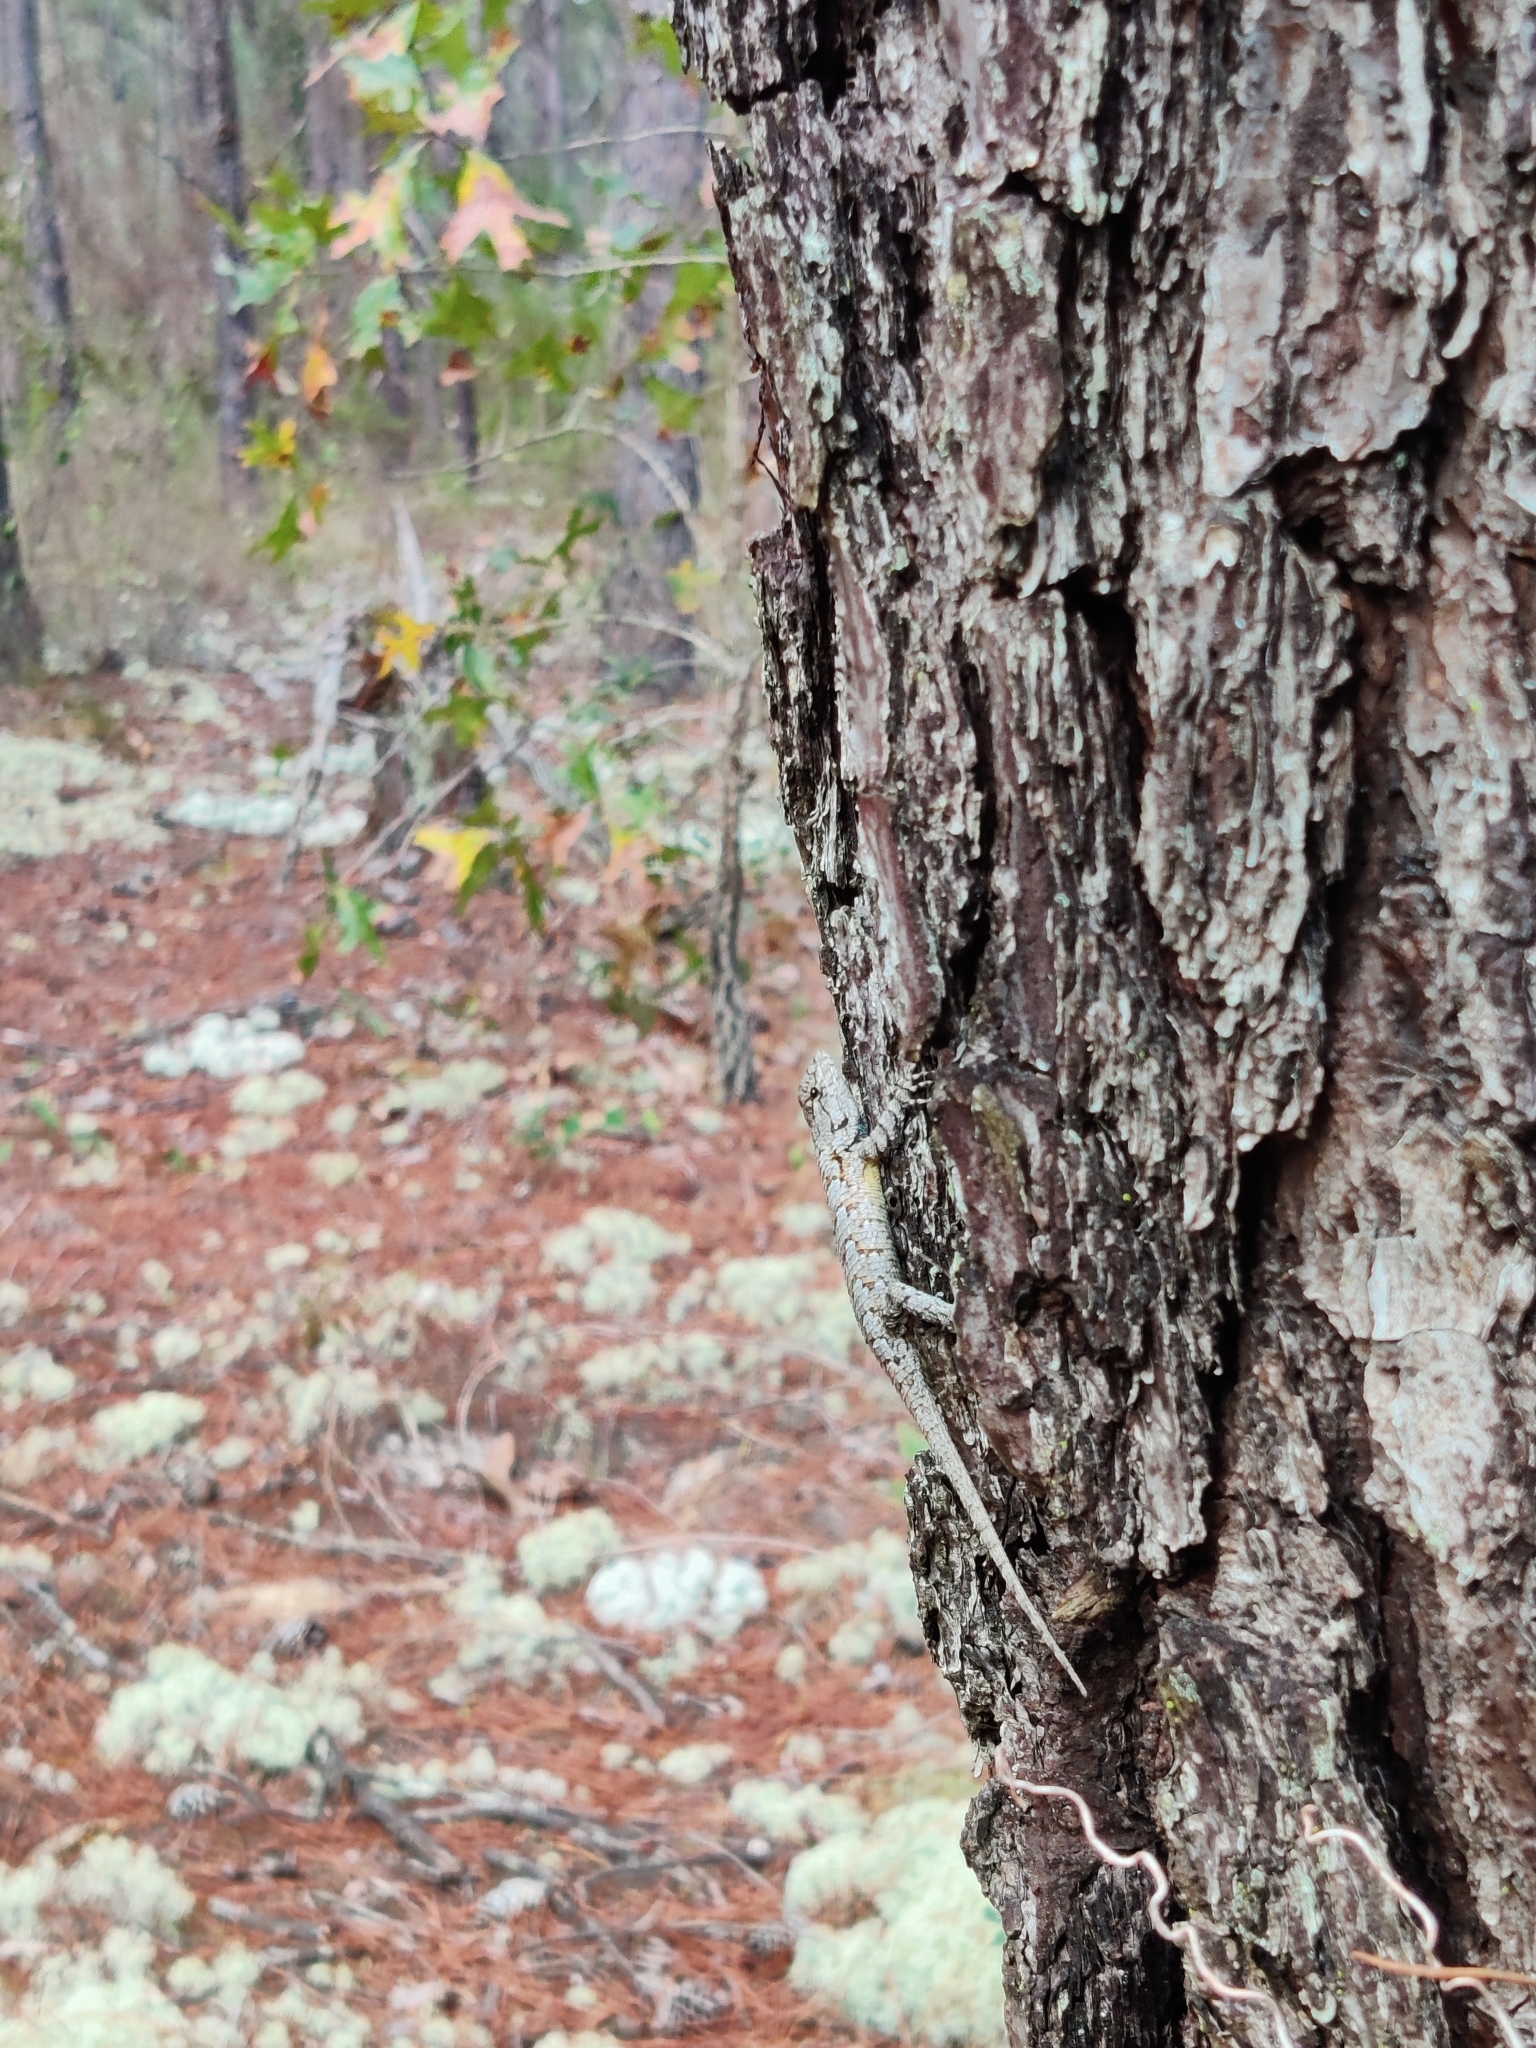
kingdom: Animalia
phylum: Chordata
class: Squamata
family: Phrynosomatidae
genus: Sceloporus
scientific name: Sceloporus undulatus
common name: Eastern fence lizard
